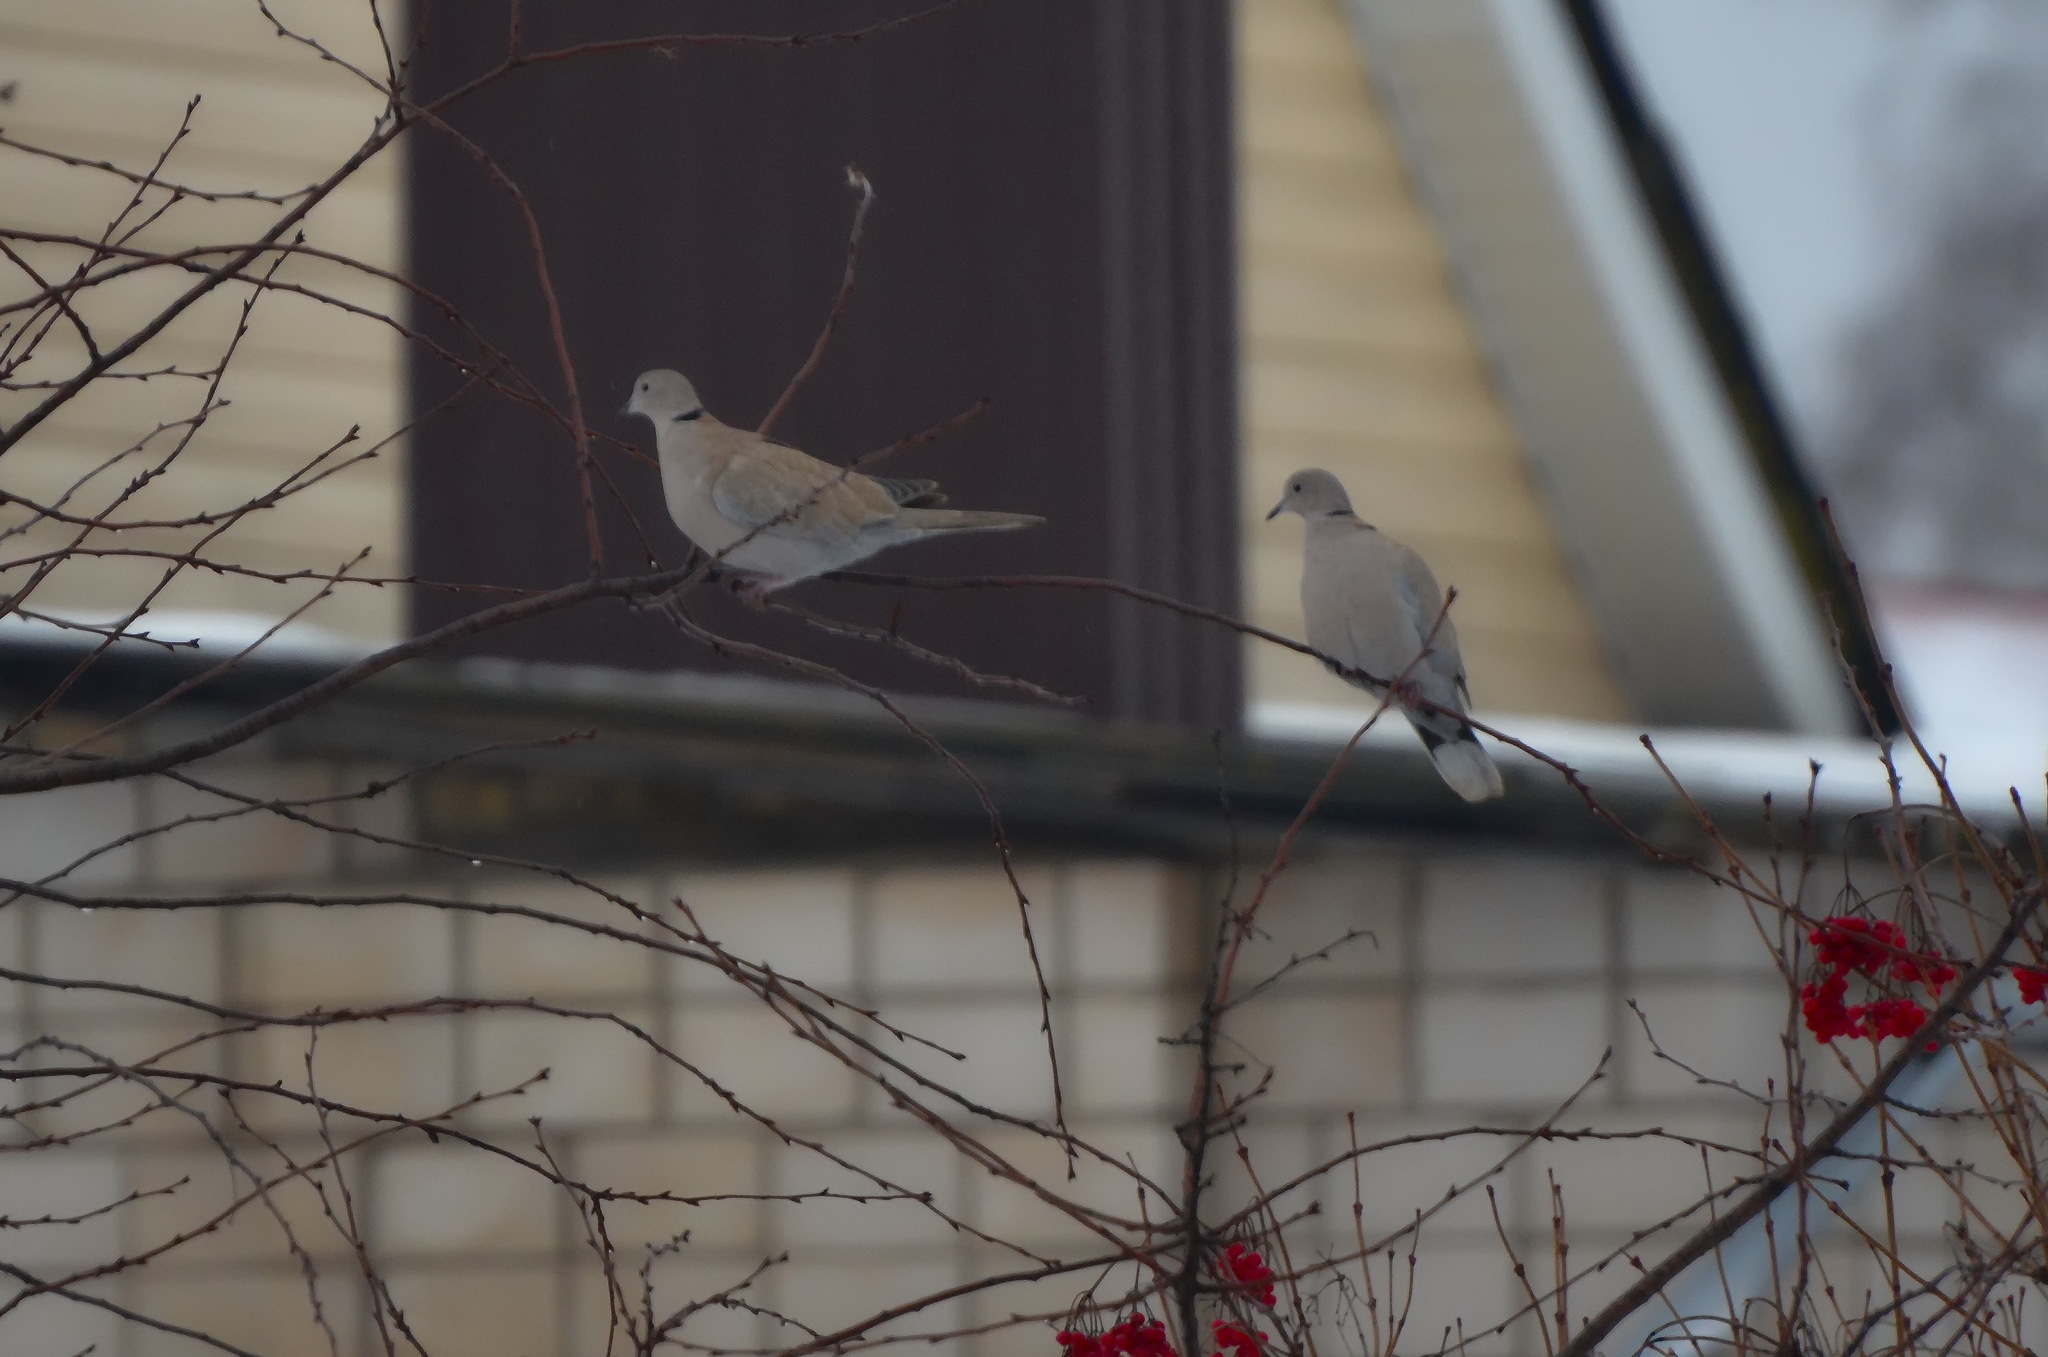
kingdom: Animalia
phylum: Chordata
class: Aves
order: Columbiformes
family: Columbidae
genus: Streptopelia
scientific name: Streptopelia decaocto
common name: Eurasian collared dove
